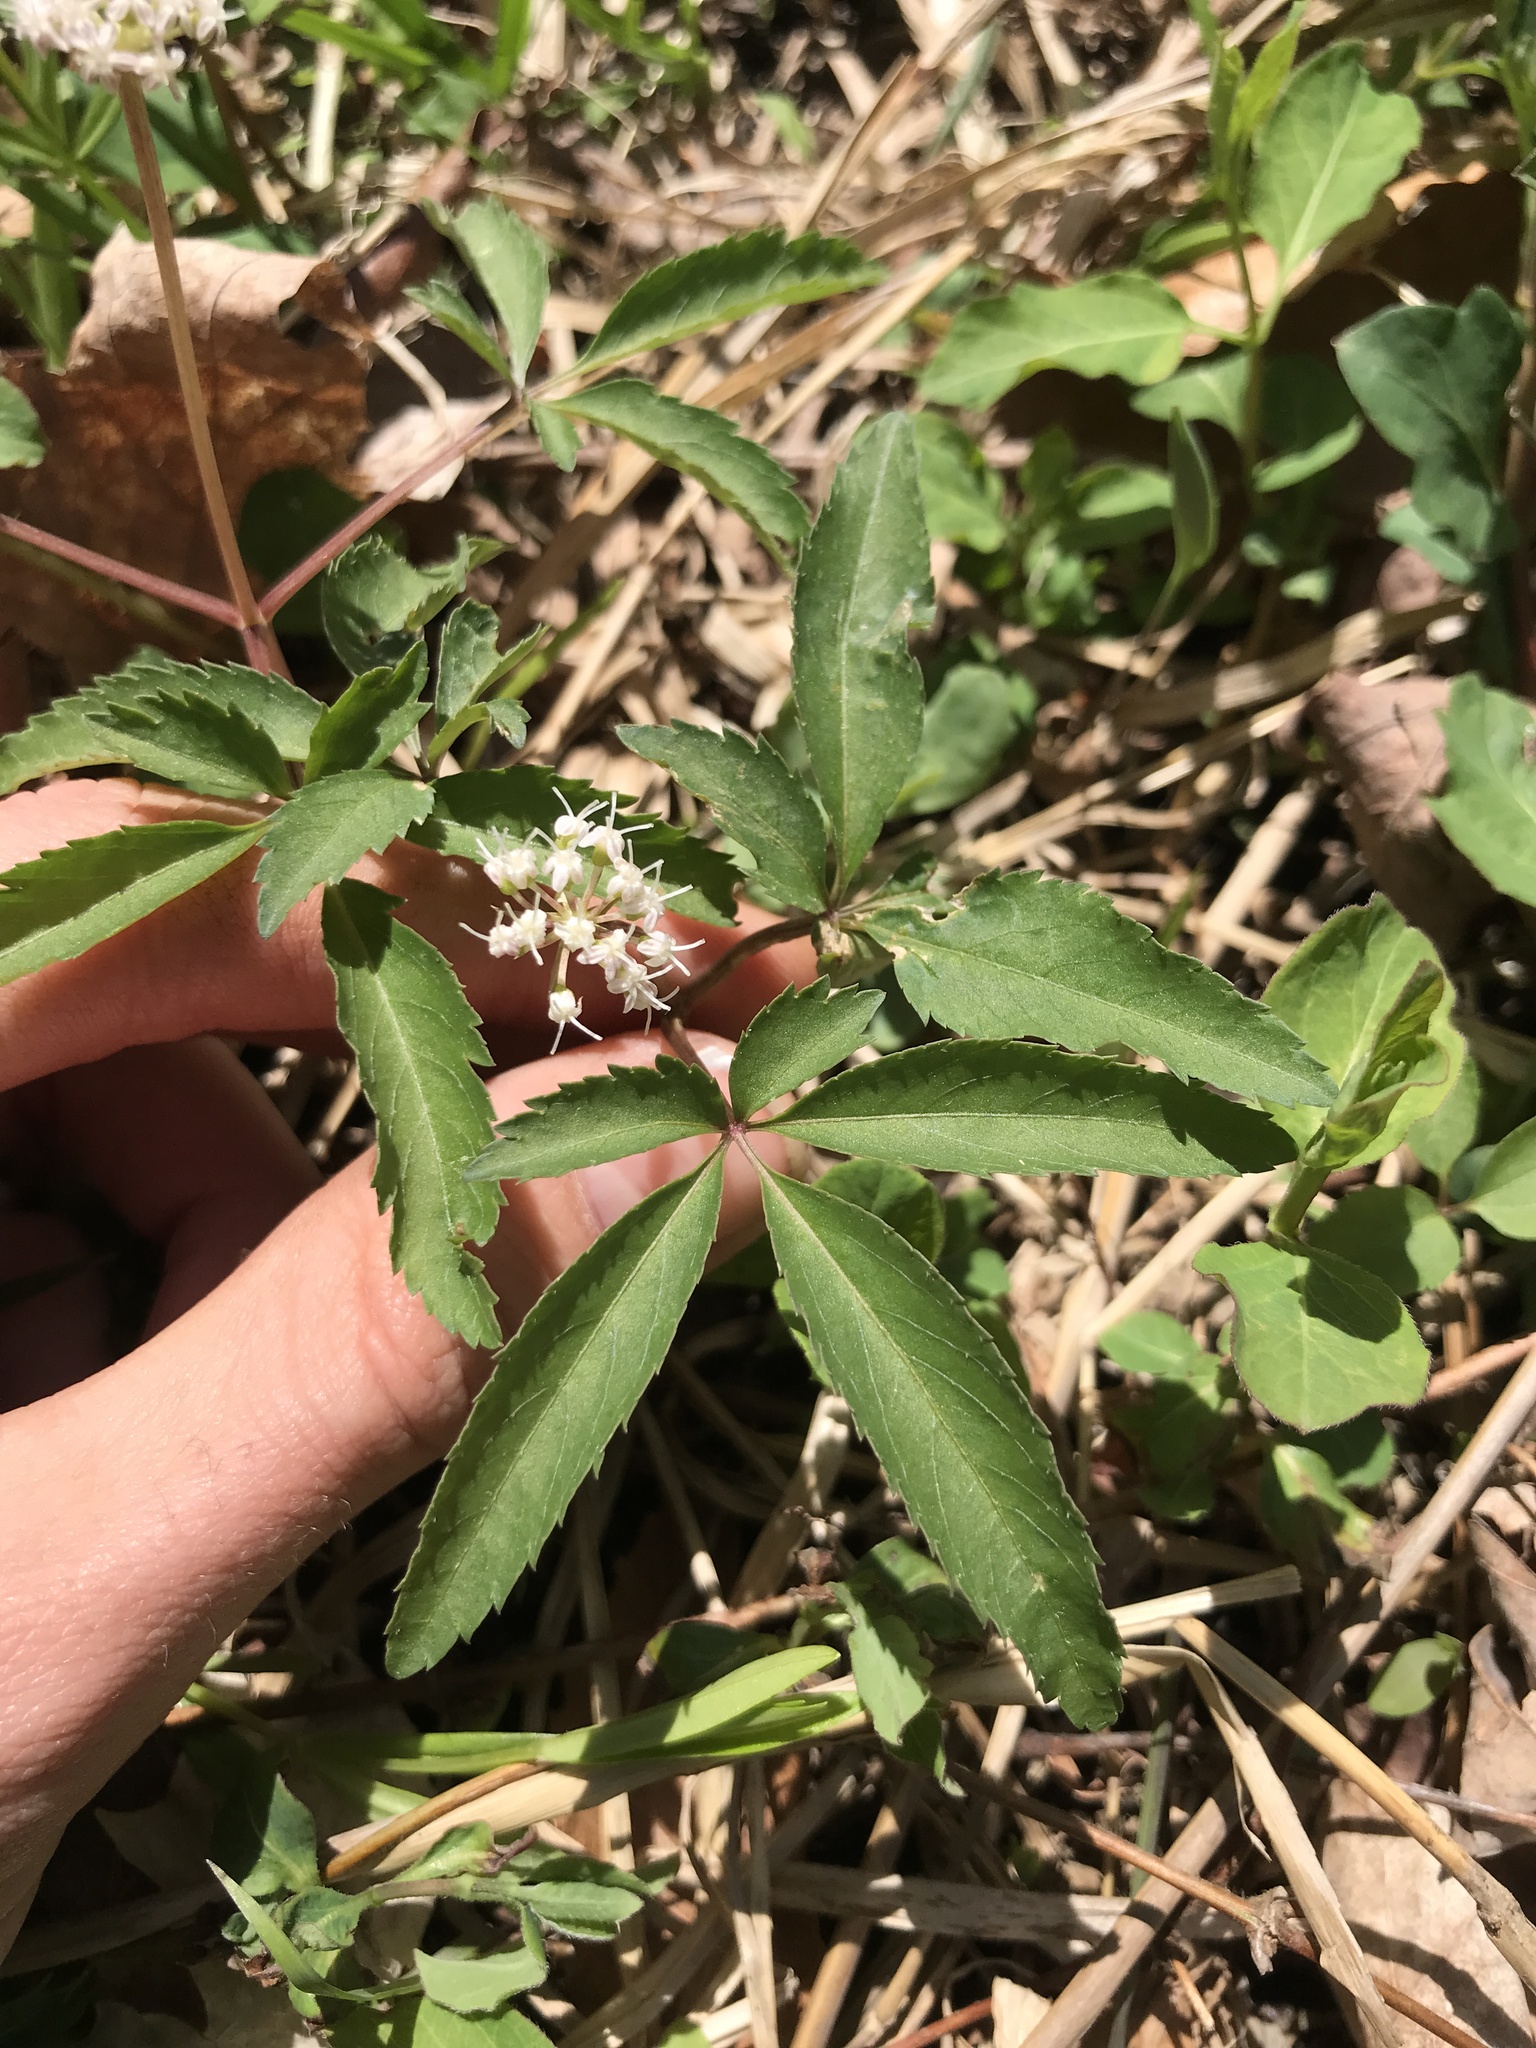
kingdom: Plantae
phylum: Tracheophyta
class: Magnoliopsida
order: Apiales
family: Araliaceae
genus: Panax
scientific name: Panax trifolius
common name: Dwarf ginseng
